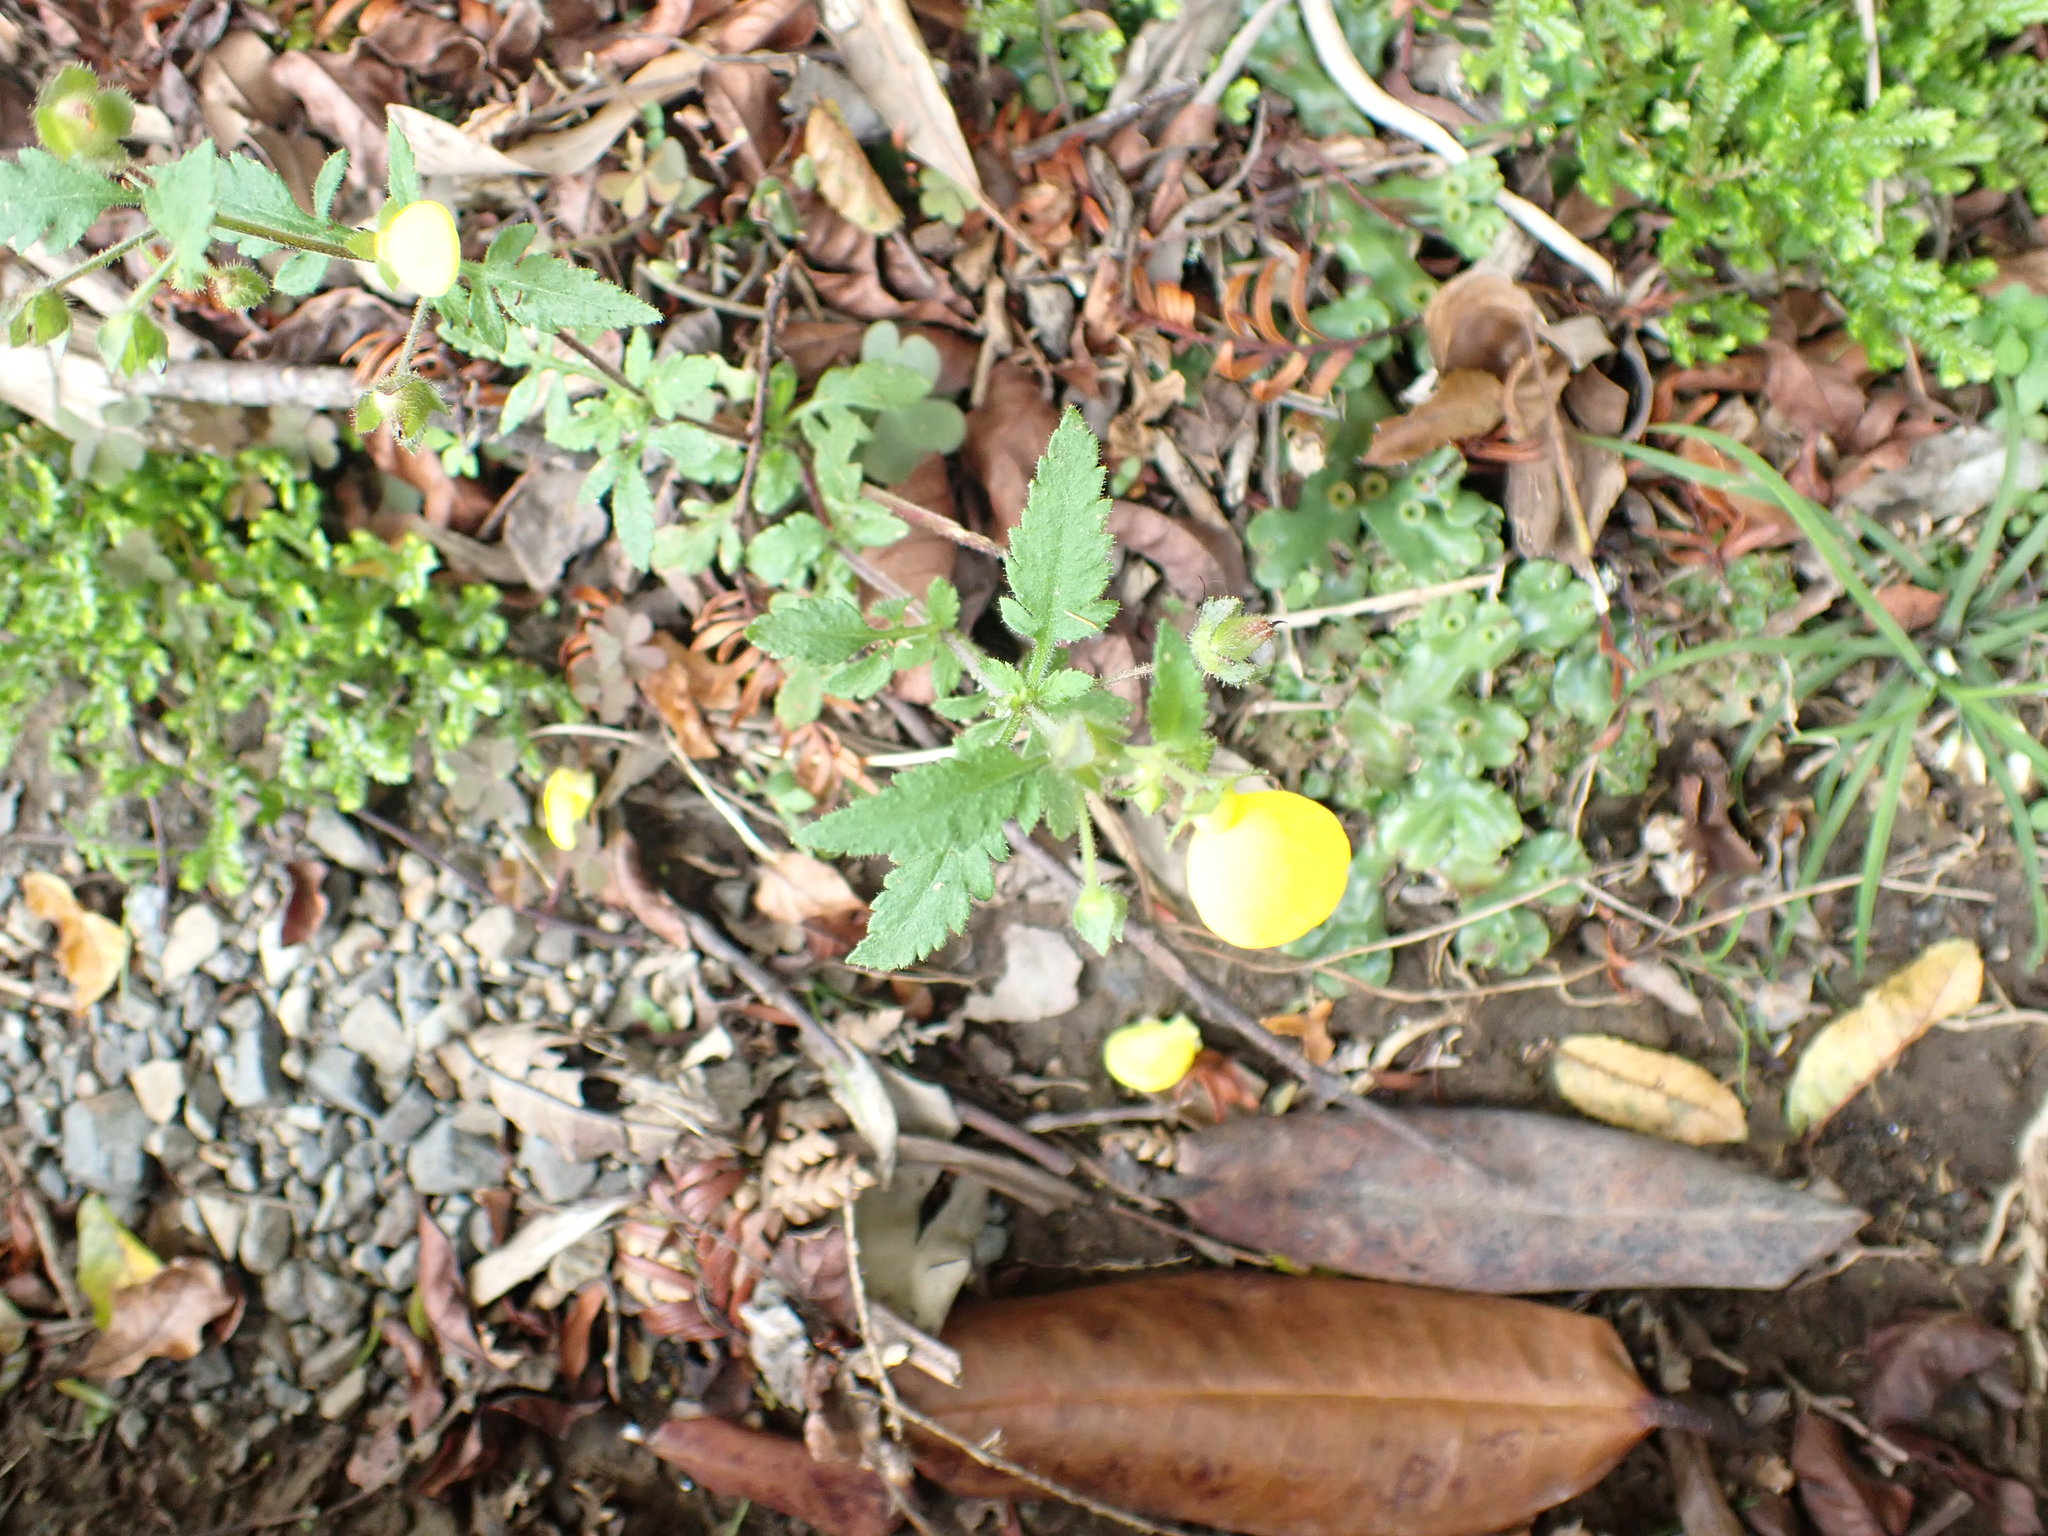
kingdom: Plantae
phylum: Tracheophyta
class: Magnoliopsida
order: Lamiales
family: Calceolariaceae
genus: Calceolaria
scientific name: Calceolaria tripartita
